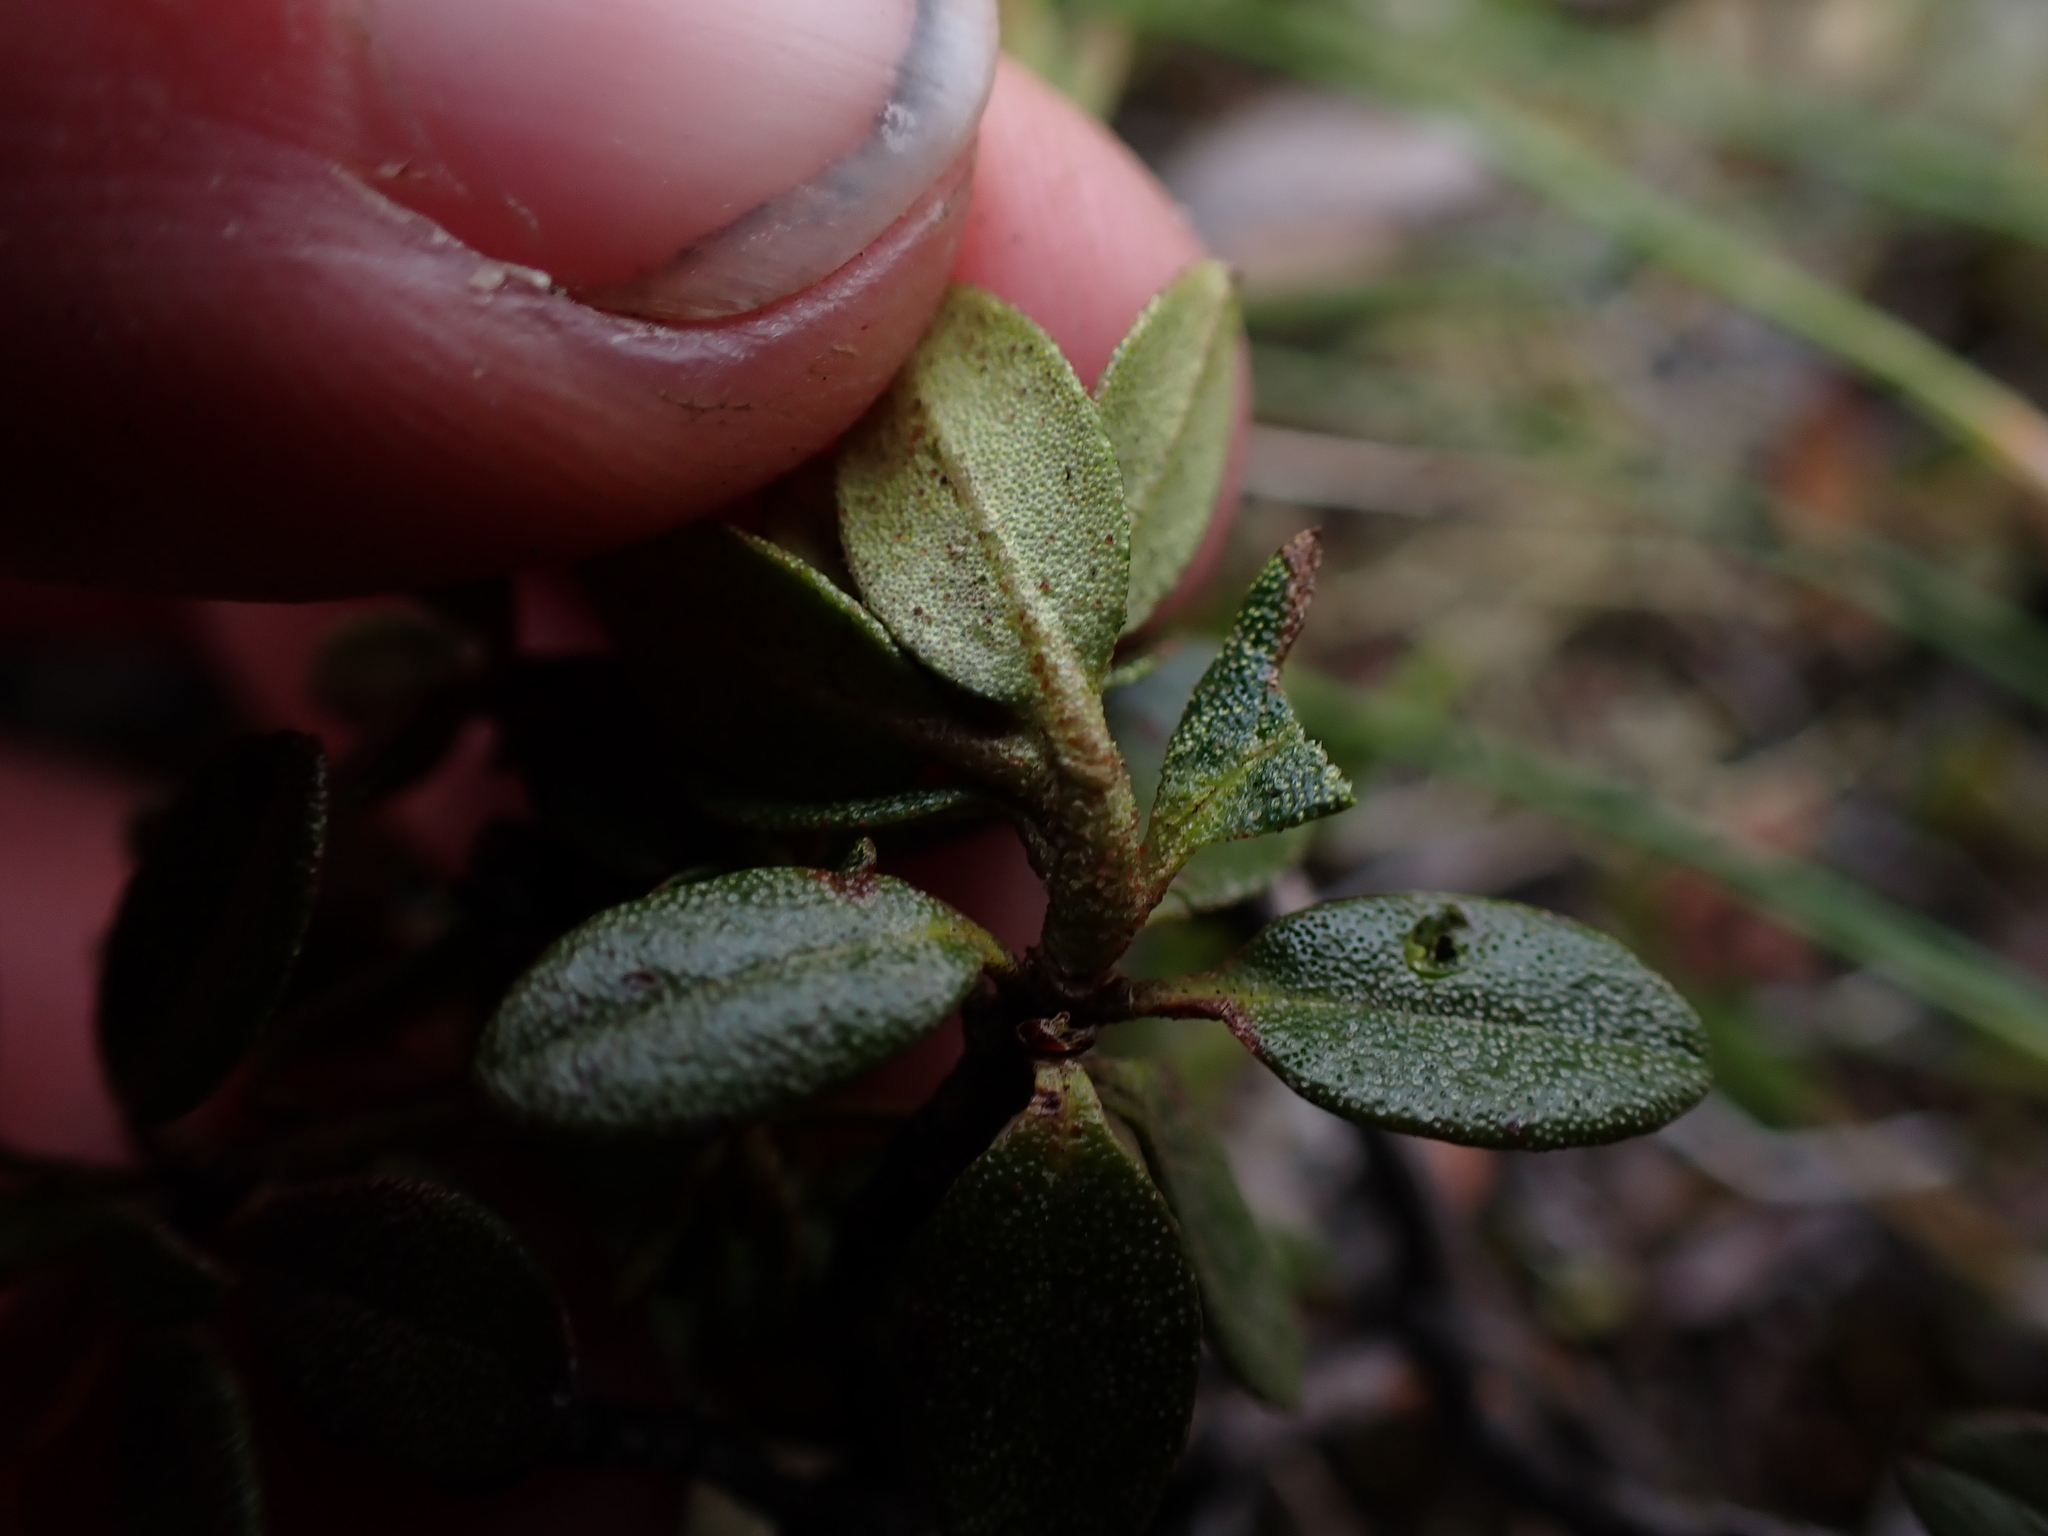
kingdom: Plantae
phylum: Tracheophyta
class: Magnoliopsida
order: Ericales
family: Ericaceae
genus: Rhododendron
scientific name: Rhododendron lapponicum
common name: Lapland rhododendron
